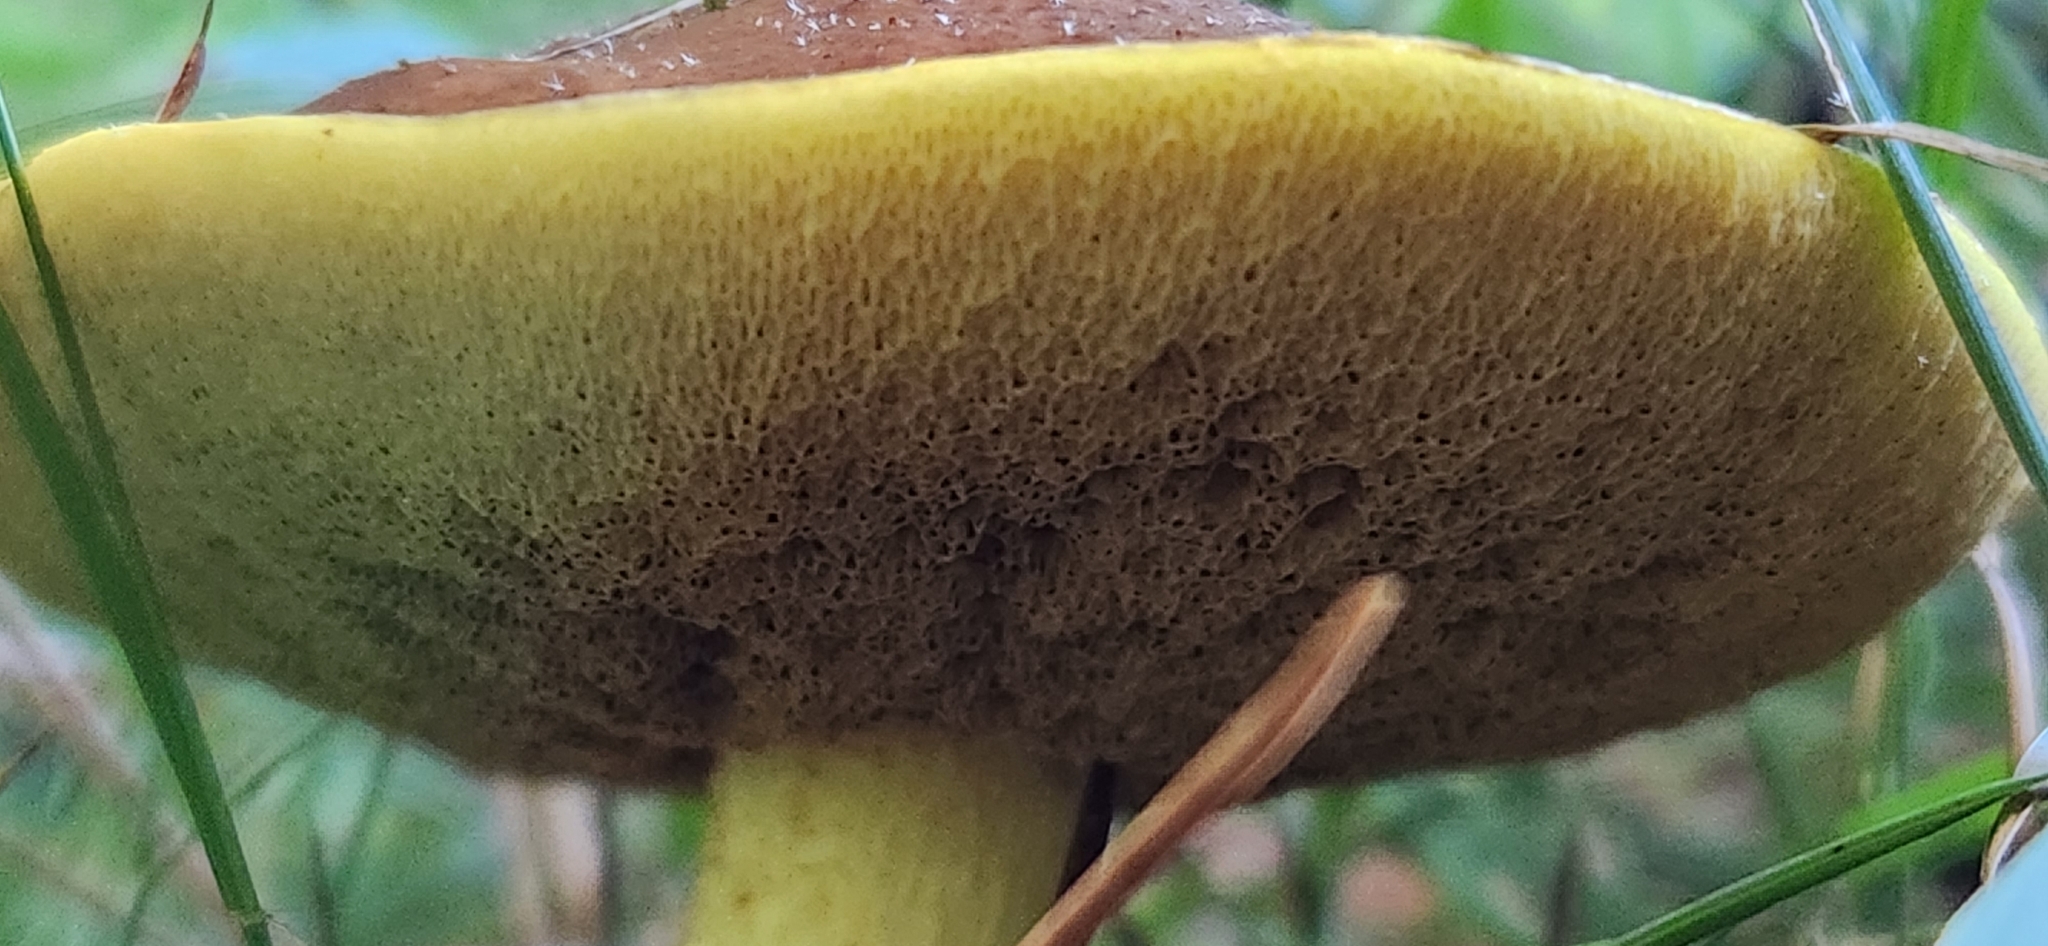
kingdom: Fungi
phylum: Basidiomycota
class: Agaricomycetes
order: Boletales
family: Suillaceae
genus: Suillus
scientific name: Suillus granulatus
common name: Weeping bolete
